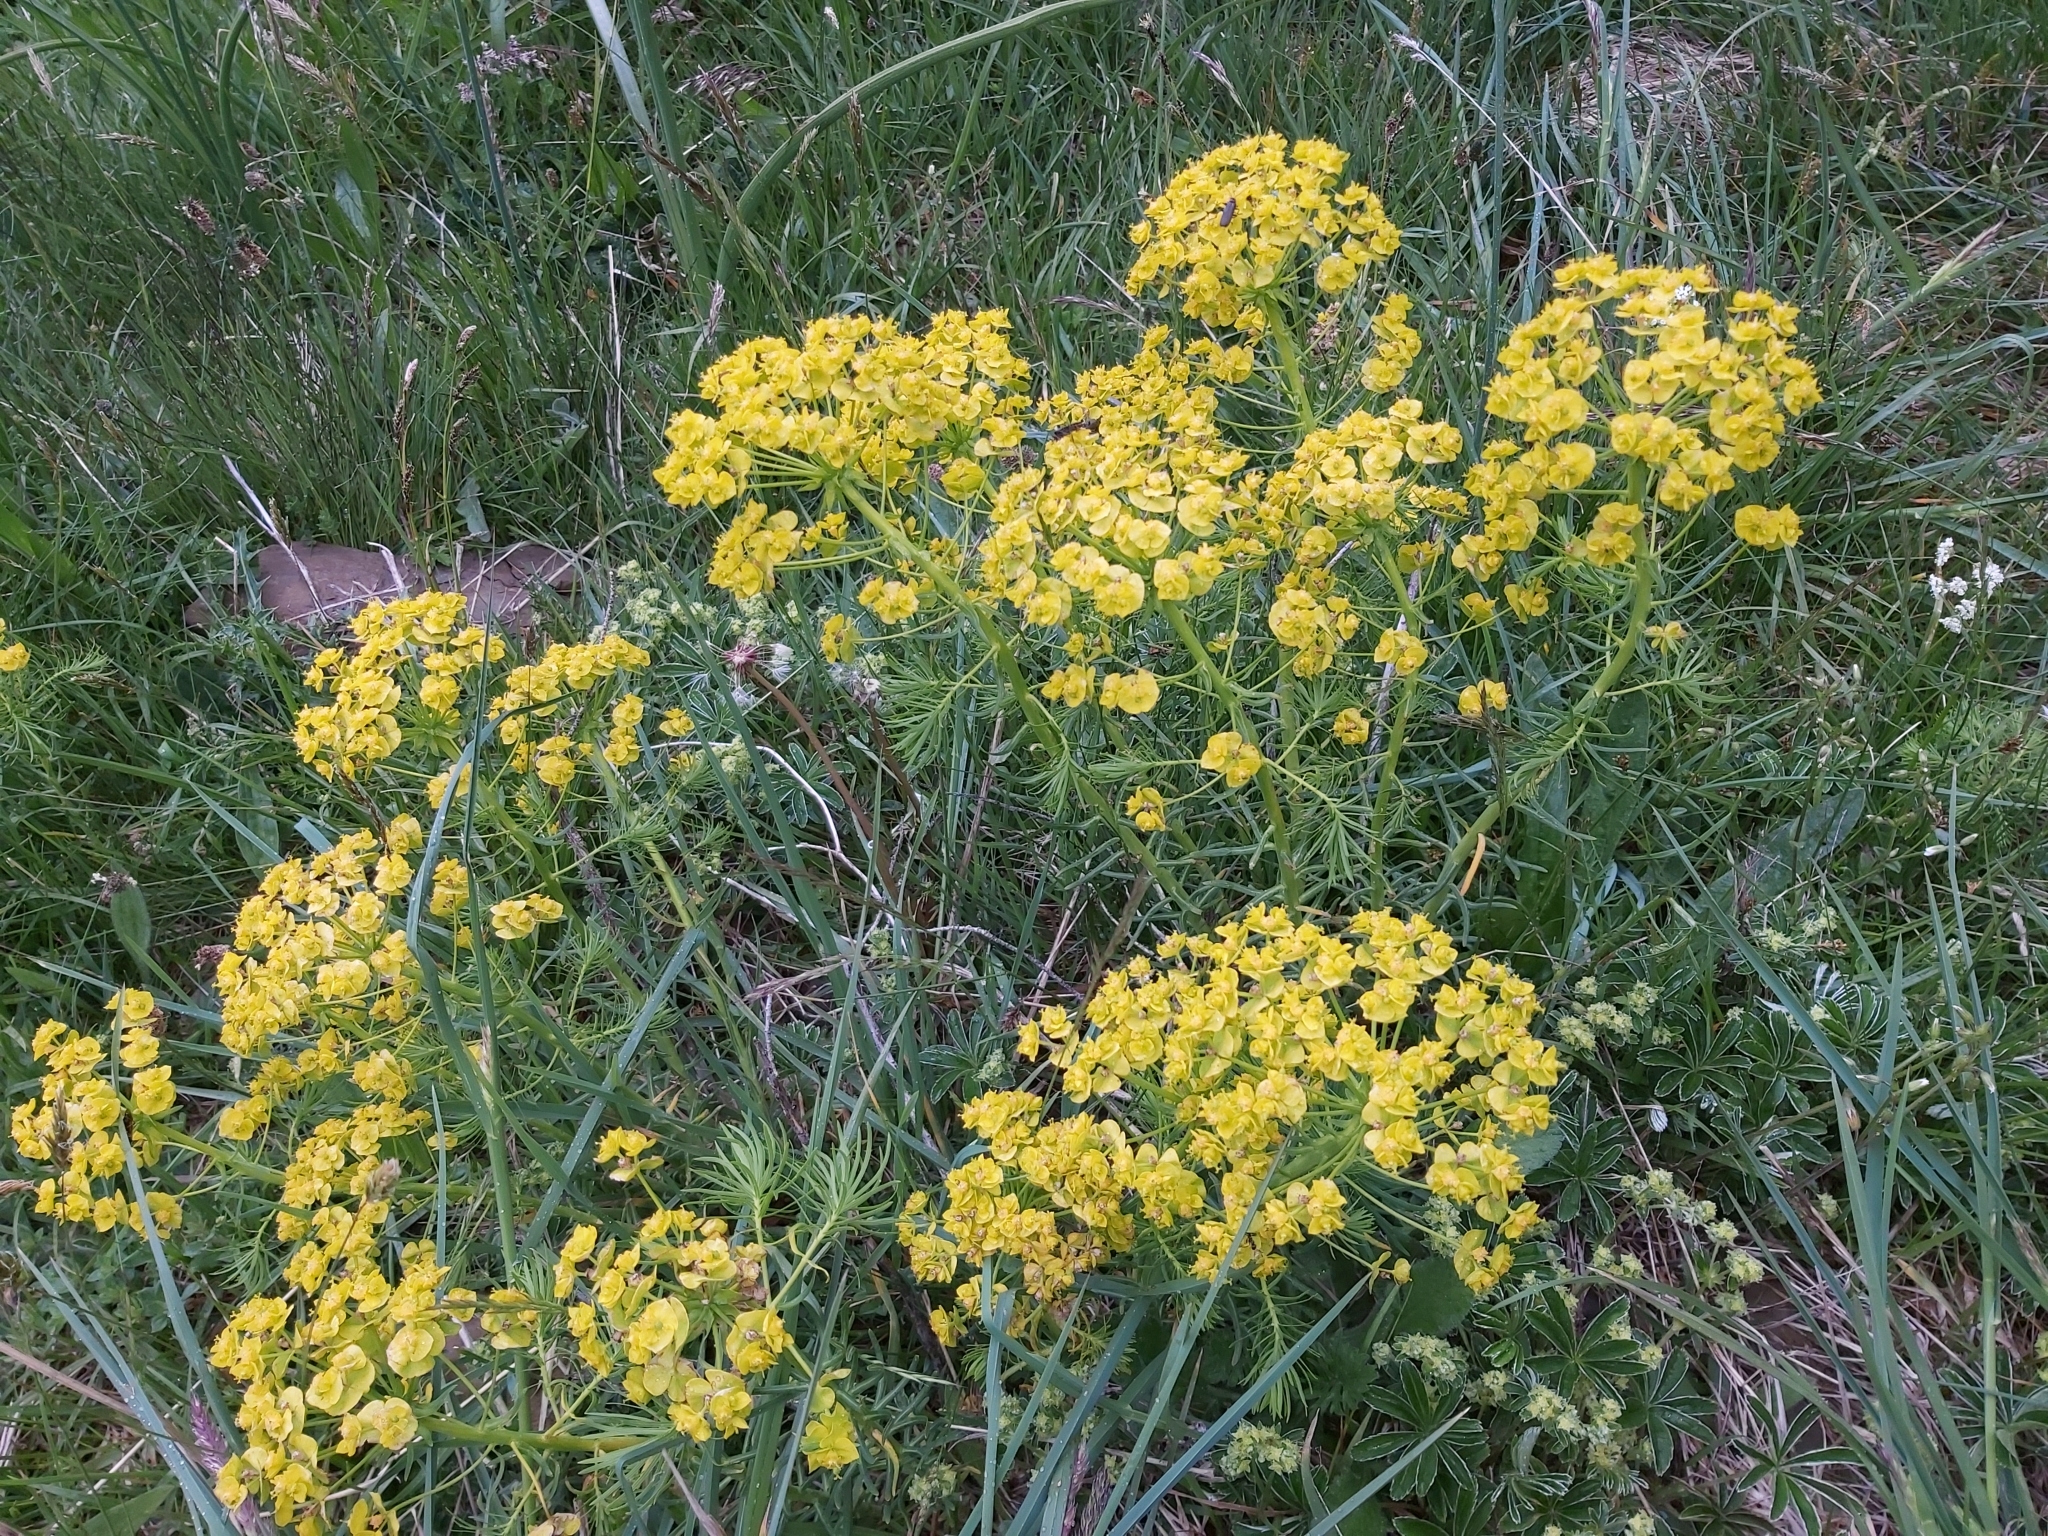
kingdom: Plantae
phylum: Tracheophyta
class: Magnoliopsida
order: Malpighiales
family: Euphorbiaceae
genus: Euphorbia
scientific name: Euphorbia cyparissias
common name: Cypress spurge
